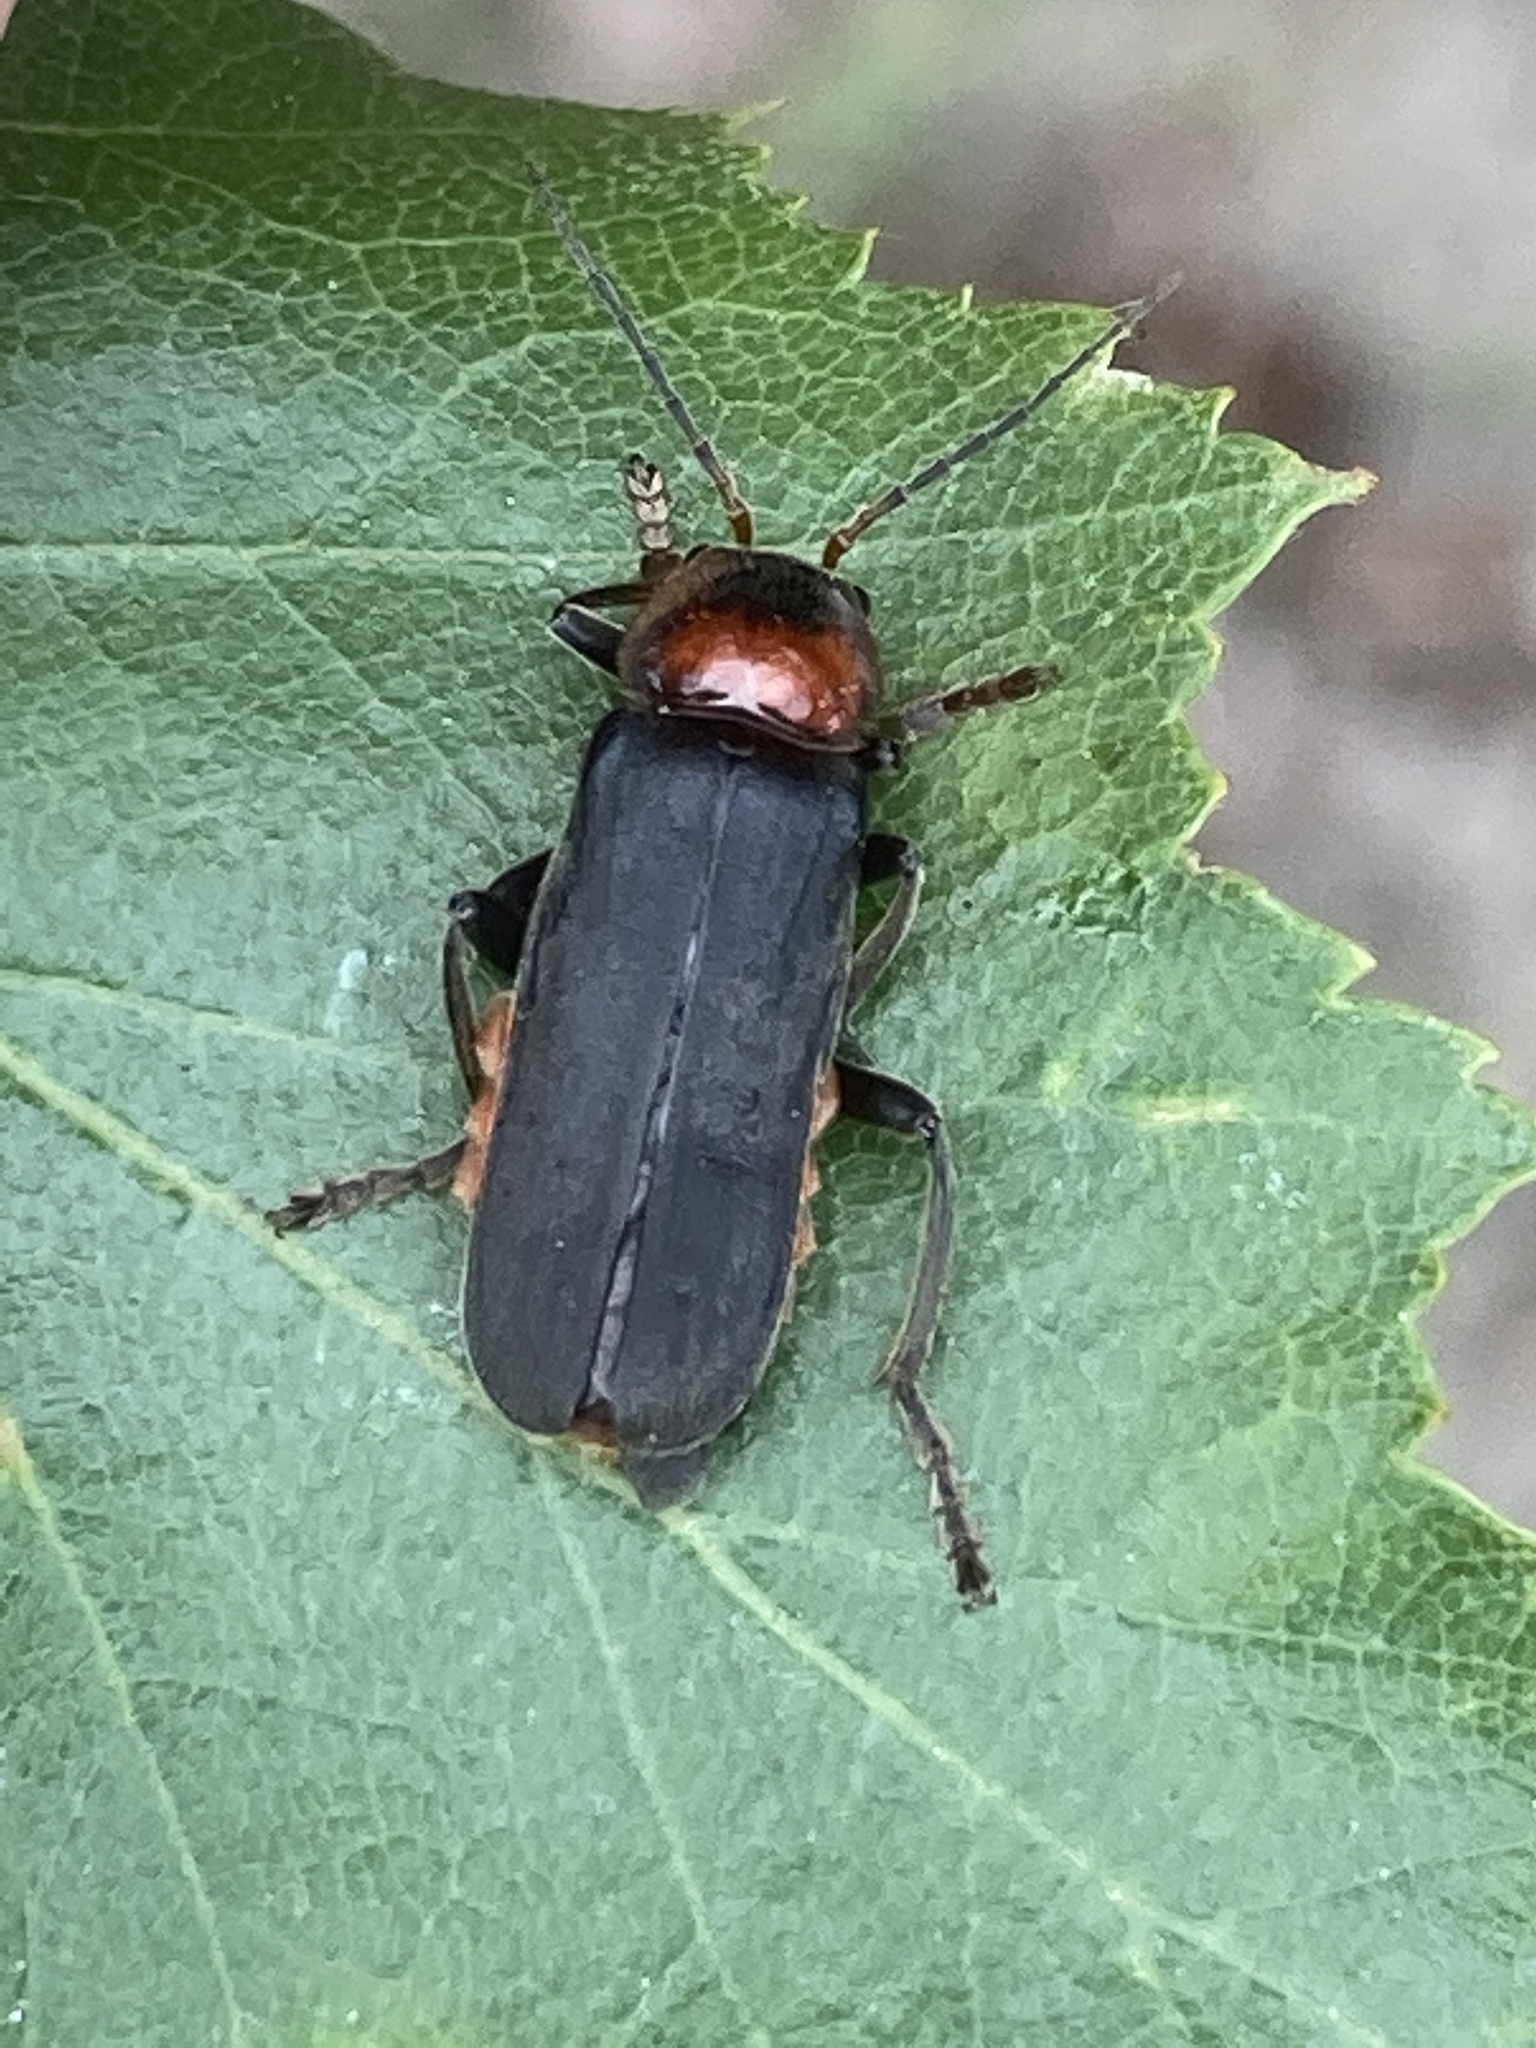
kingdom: Animalia
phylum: Arthropoda
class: Insecta
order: Coleoptera
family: Cantharidae
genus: Cantharis
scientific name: Cantharis fusca
